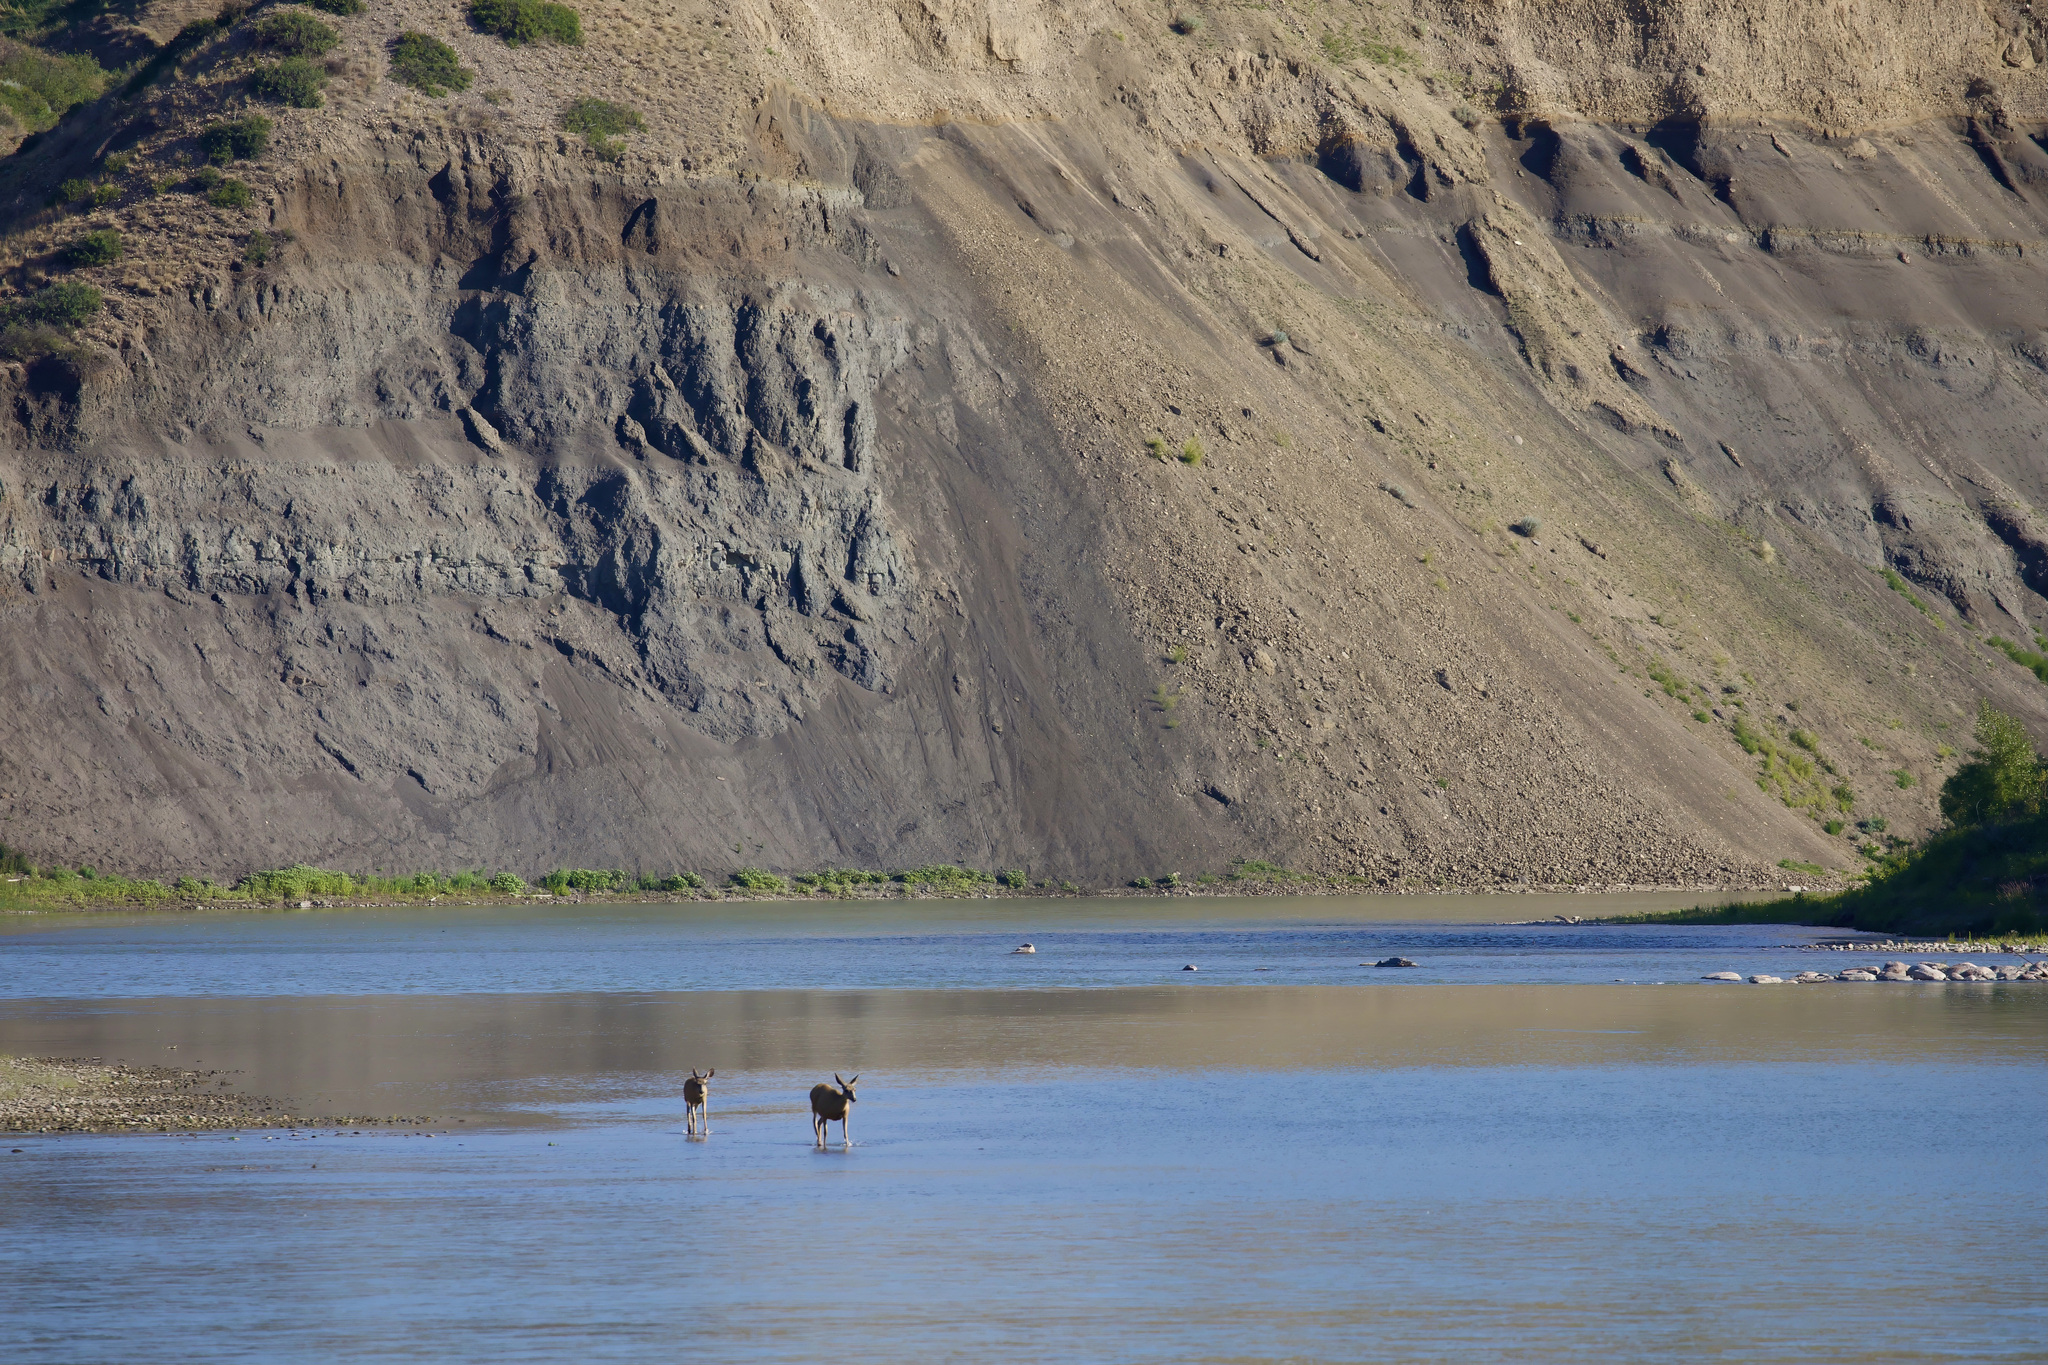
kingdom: Animalia
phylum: Chordata
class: Mammalia
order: Artiodactyla
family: Cervidae
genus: Odocoileus
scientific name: Odocoileus hemionus
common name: Mule deer
